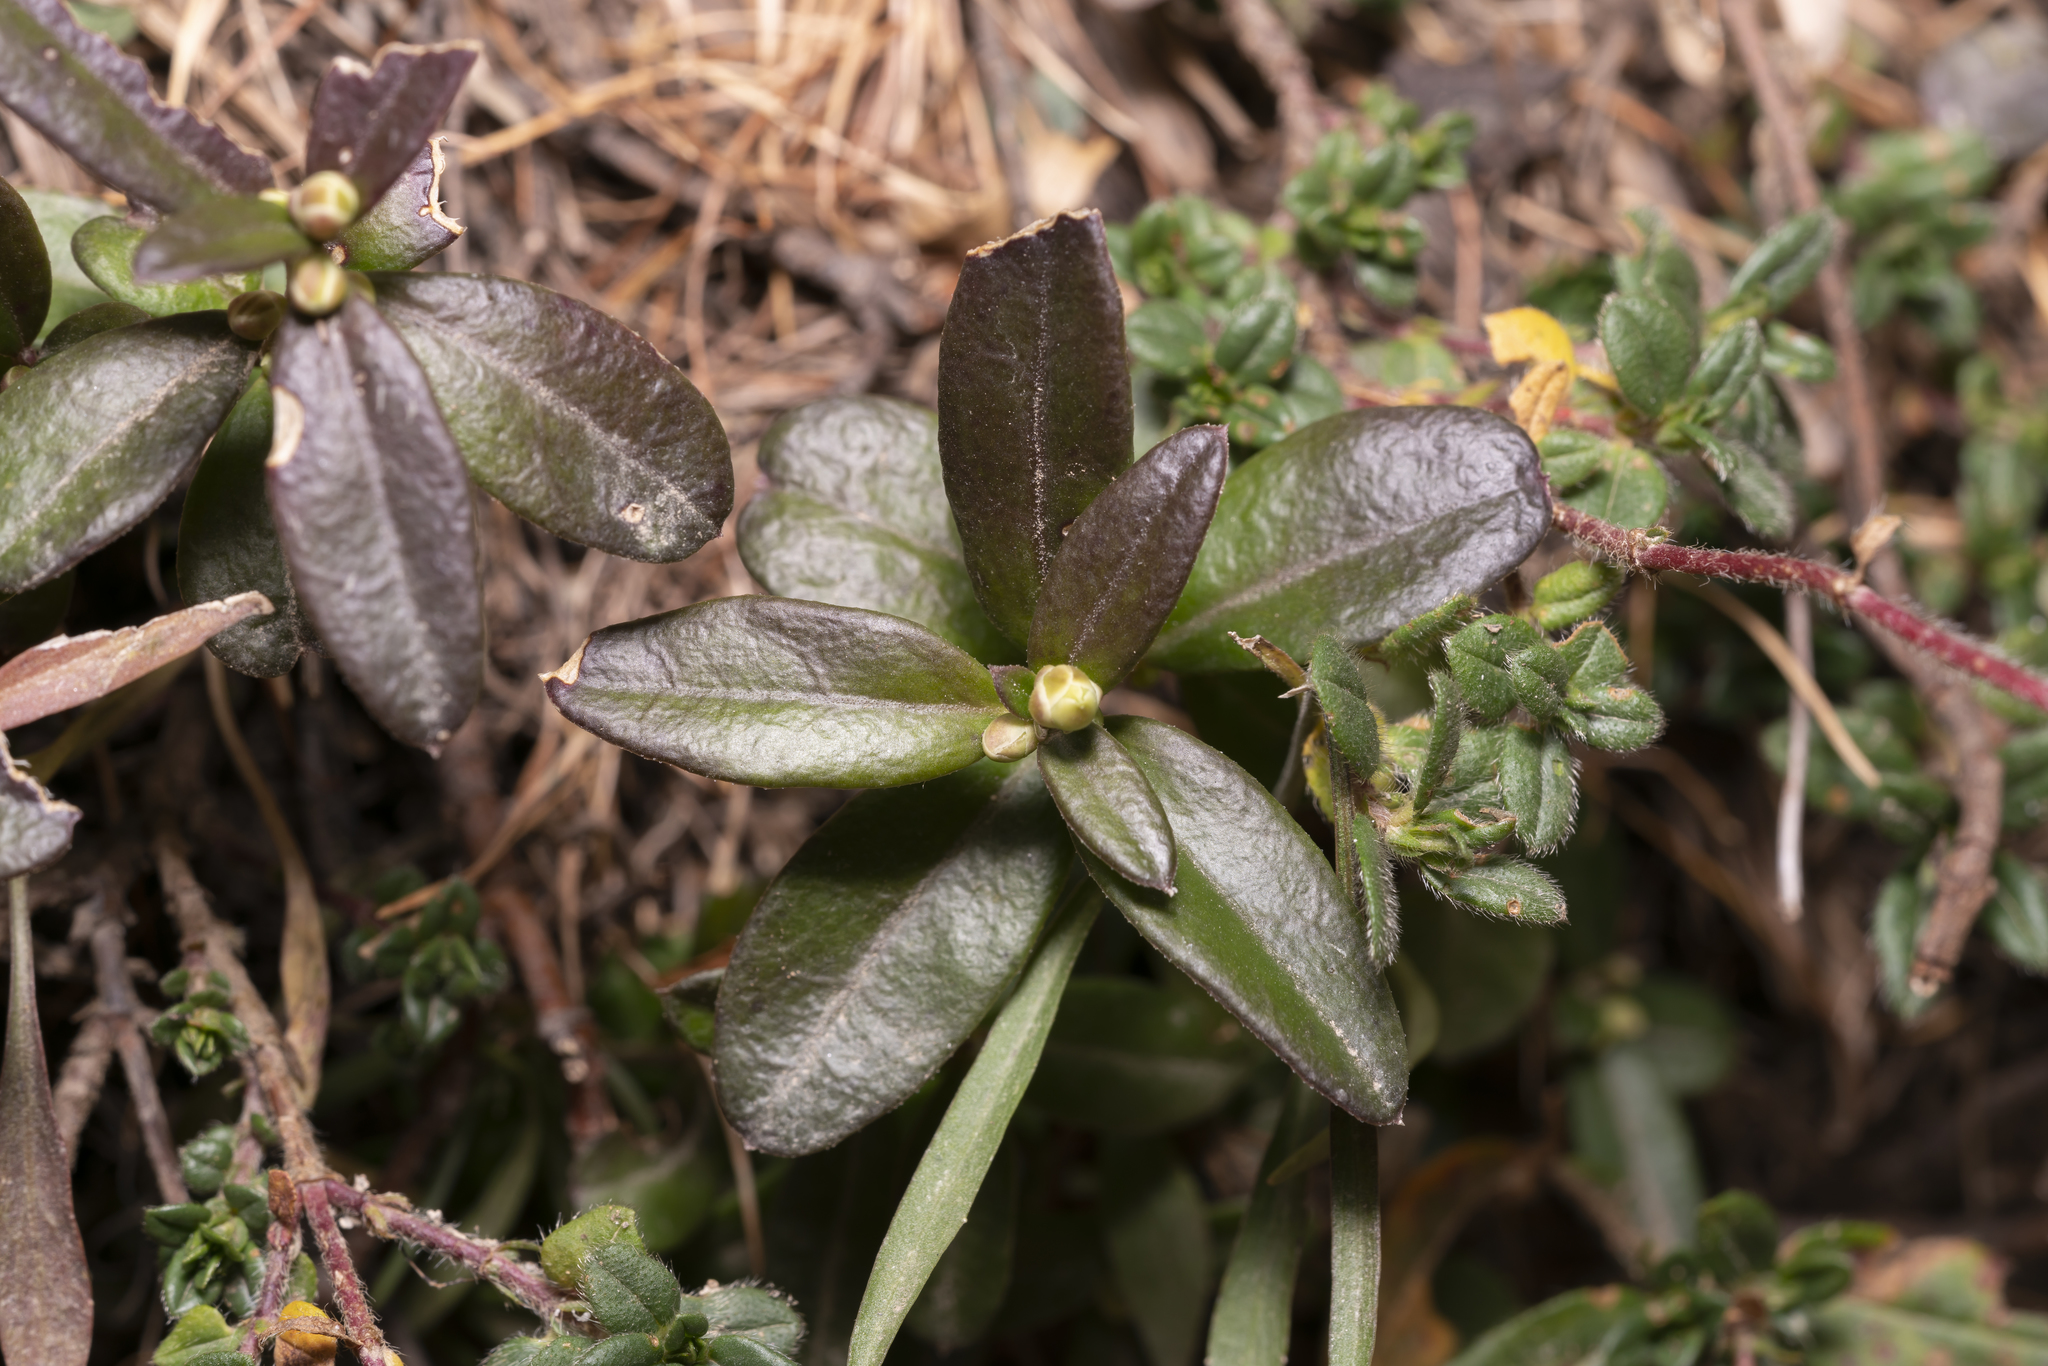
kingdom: Plantae
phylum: Tracheophyta
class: Magnoliopsida
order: Fabales
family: Polygalaceae
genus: Polygaloides
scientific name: Polygaloides chamaebuxus
